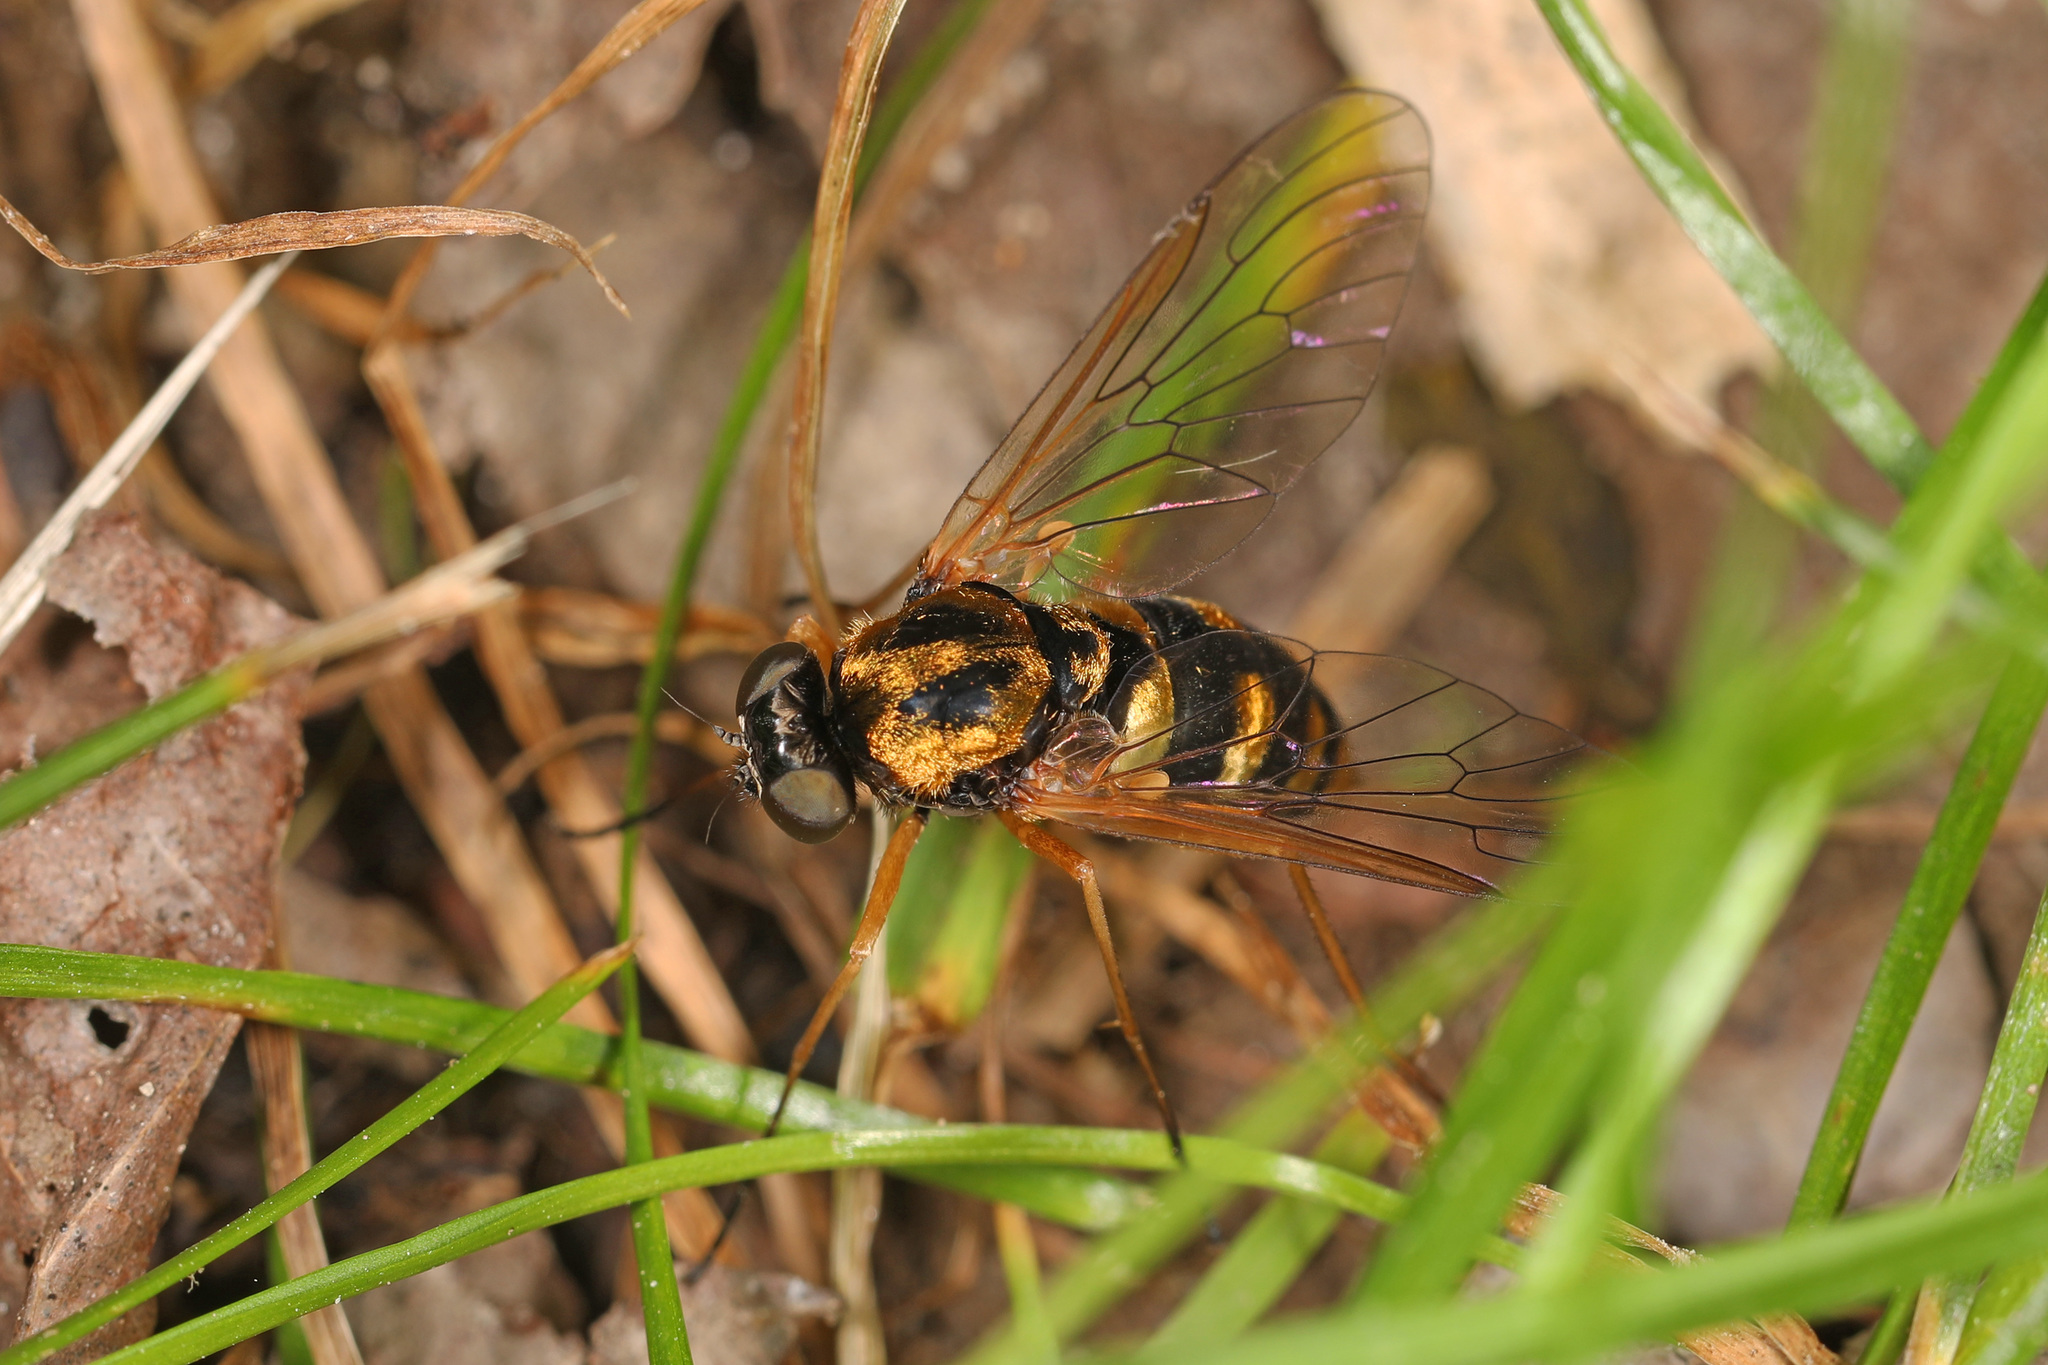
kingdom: Animalia
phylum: Arthropoda
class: Insecta
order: Diptera
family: Rhagionidae
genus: Chrysopilus
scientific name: Chrysopilus ornatus
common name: Ornate snipe fly
